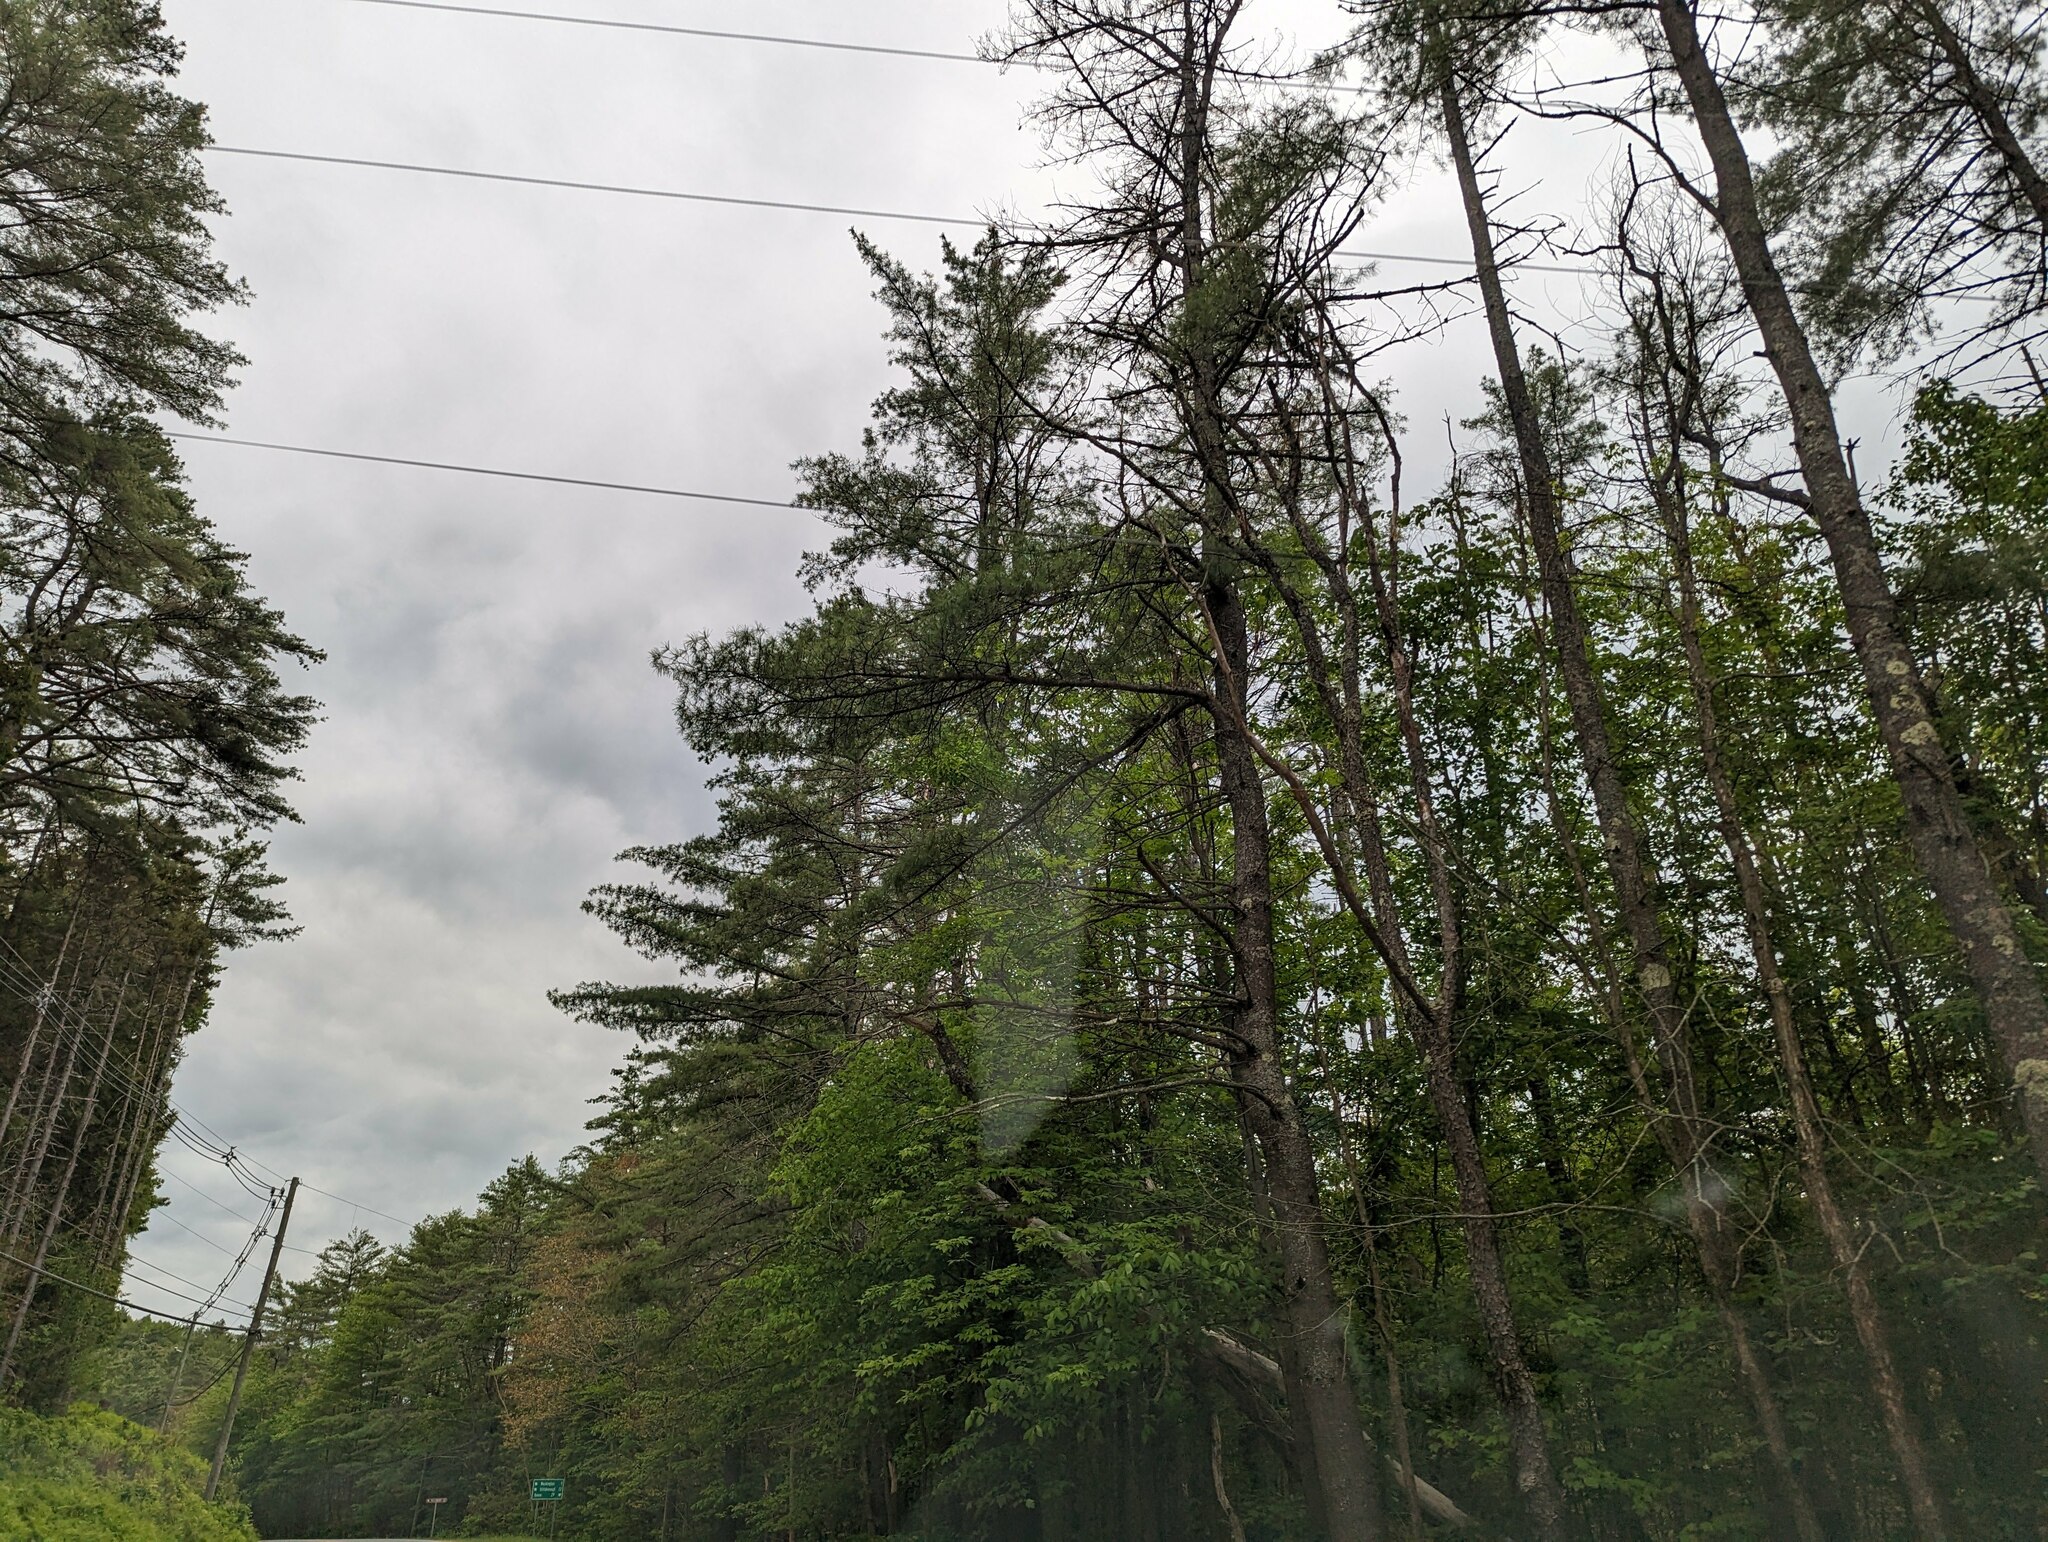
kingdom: Plantae
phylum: Tracheophyta
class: Pinopsida
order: Pinales
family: Pinaceae
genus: Pinus
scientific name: Pinus strobus
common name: Weymouth pine
